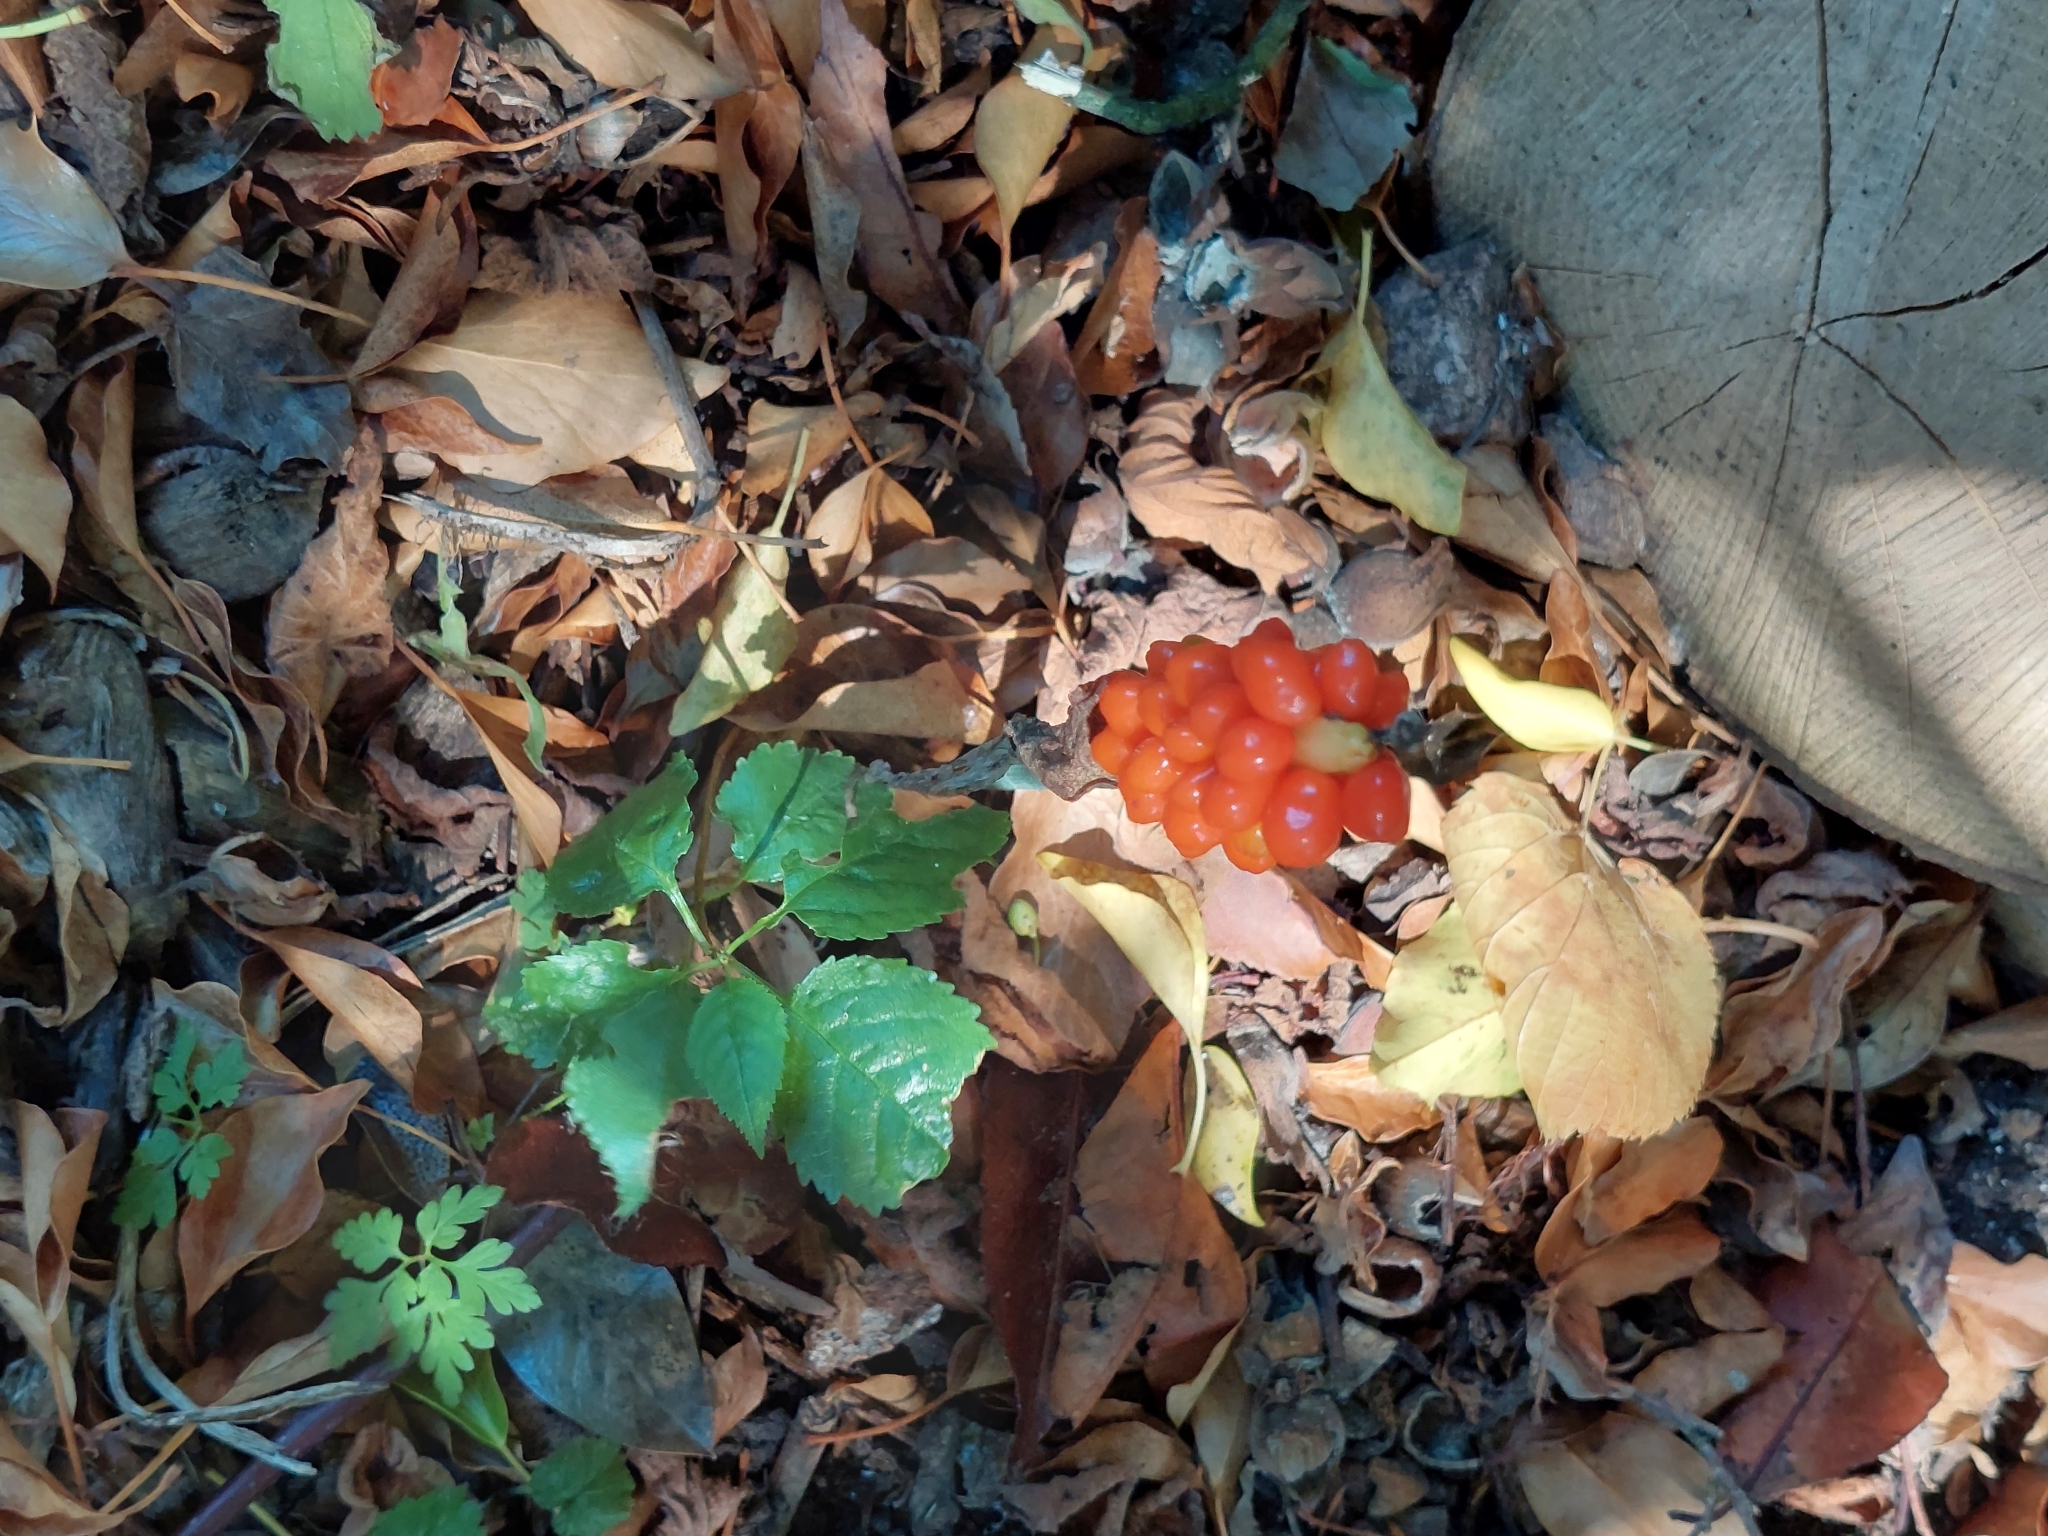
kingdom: Plantae
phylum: Tracheophyta
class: Liliopsida
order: Alismatales
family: Araceae
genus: Arum
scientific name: Arum maculatum
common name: Lords-and-ladies
